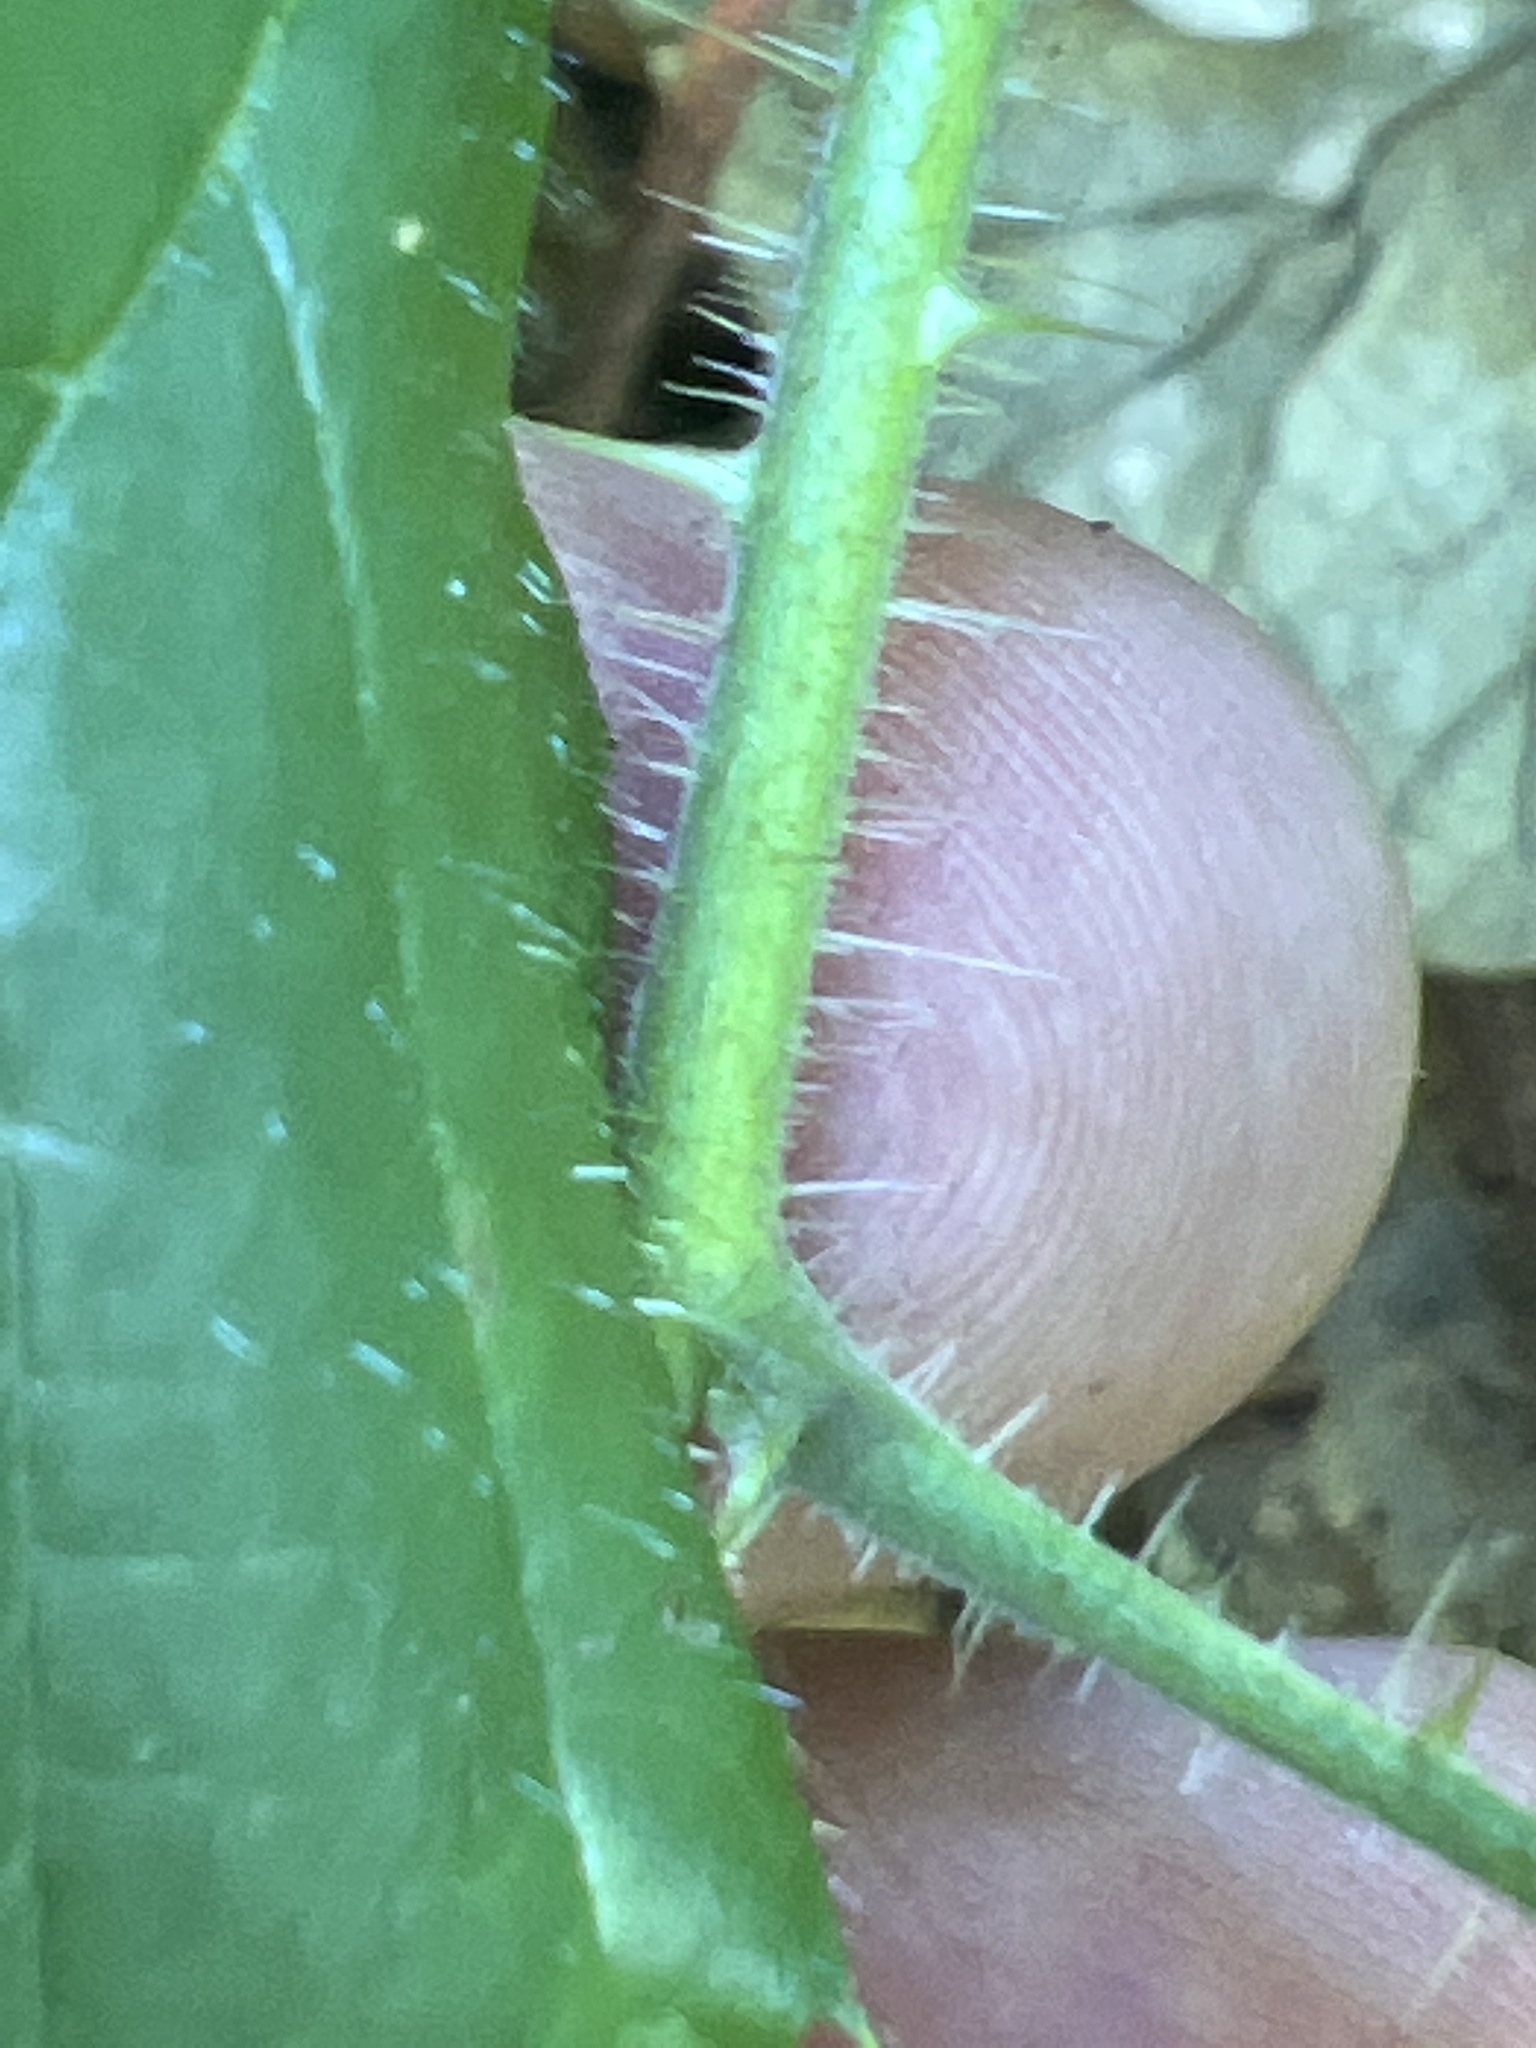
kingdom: Plantae
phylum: Tracheophyta
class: Magnoliopsida
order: Rosales
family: Rosaceae
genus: Rubus
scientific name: Rubus phoenicolasius
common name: Japanese wineberry
